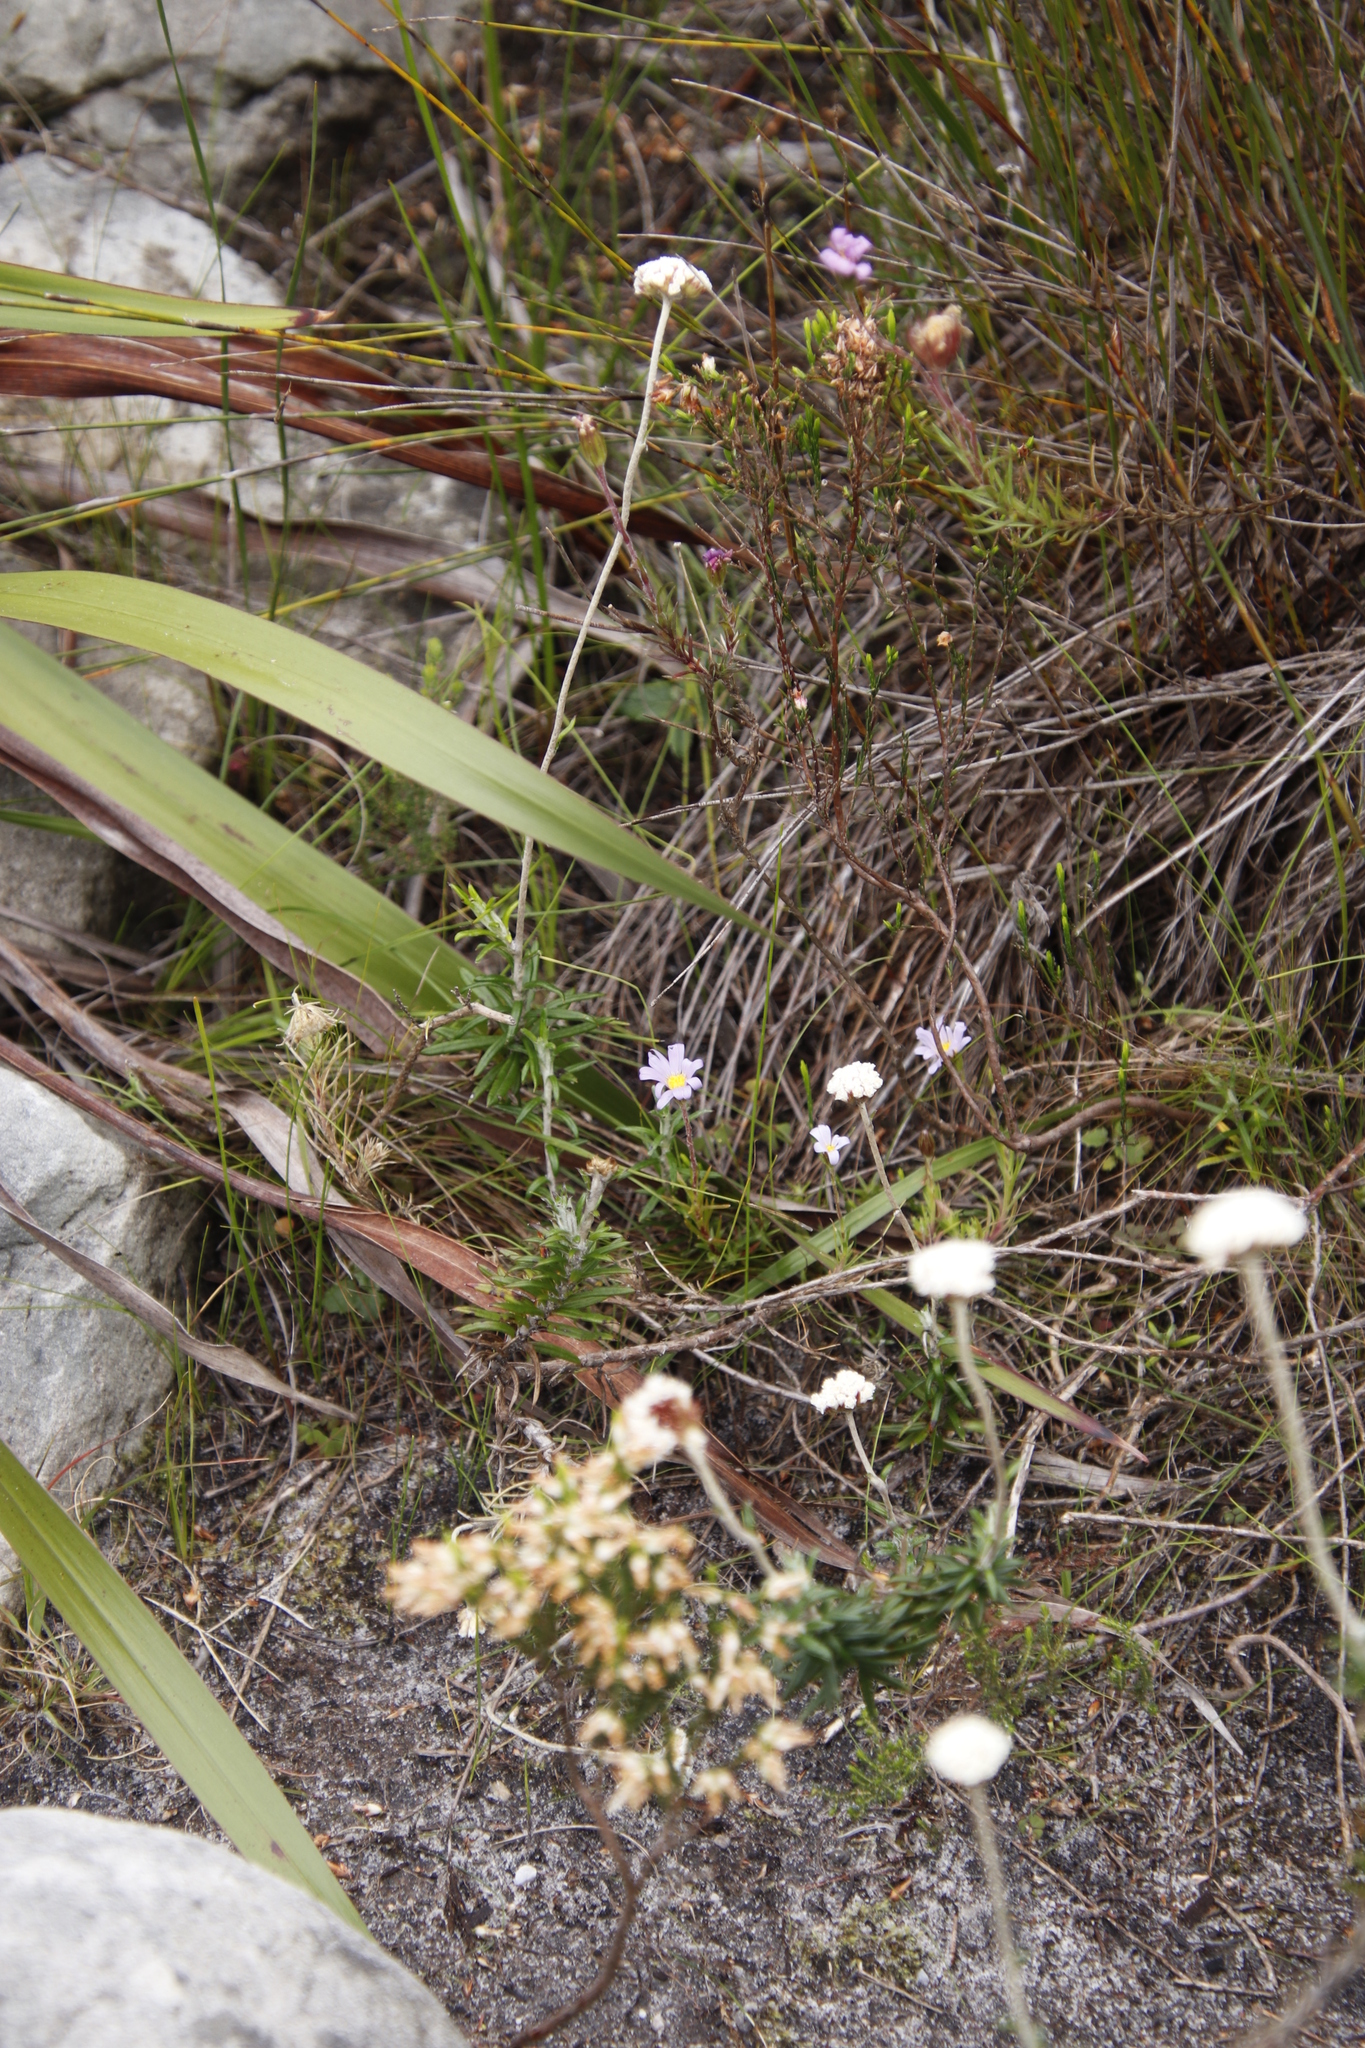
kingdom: Plantae
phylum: Tracheophyta
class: Magnoliopsida
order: Asterales
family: Asteraceae
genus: Zyrphelis
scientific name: Zyrphelis taxifolia
